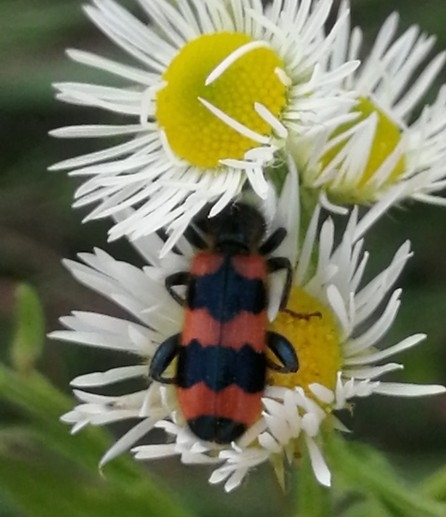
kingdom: Animalia
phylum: Arthropoda
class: Insecta
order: Coleoptera
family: Cleridae
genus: Trichodes
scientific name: Trichodes apiarius
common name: Bee-eating beetle
